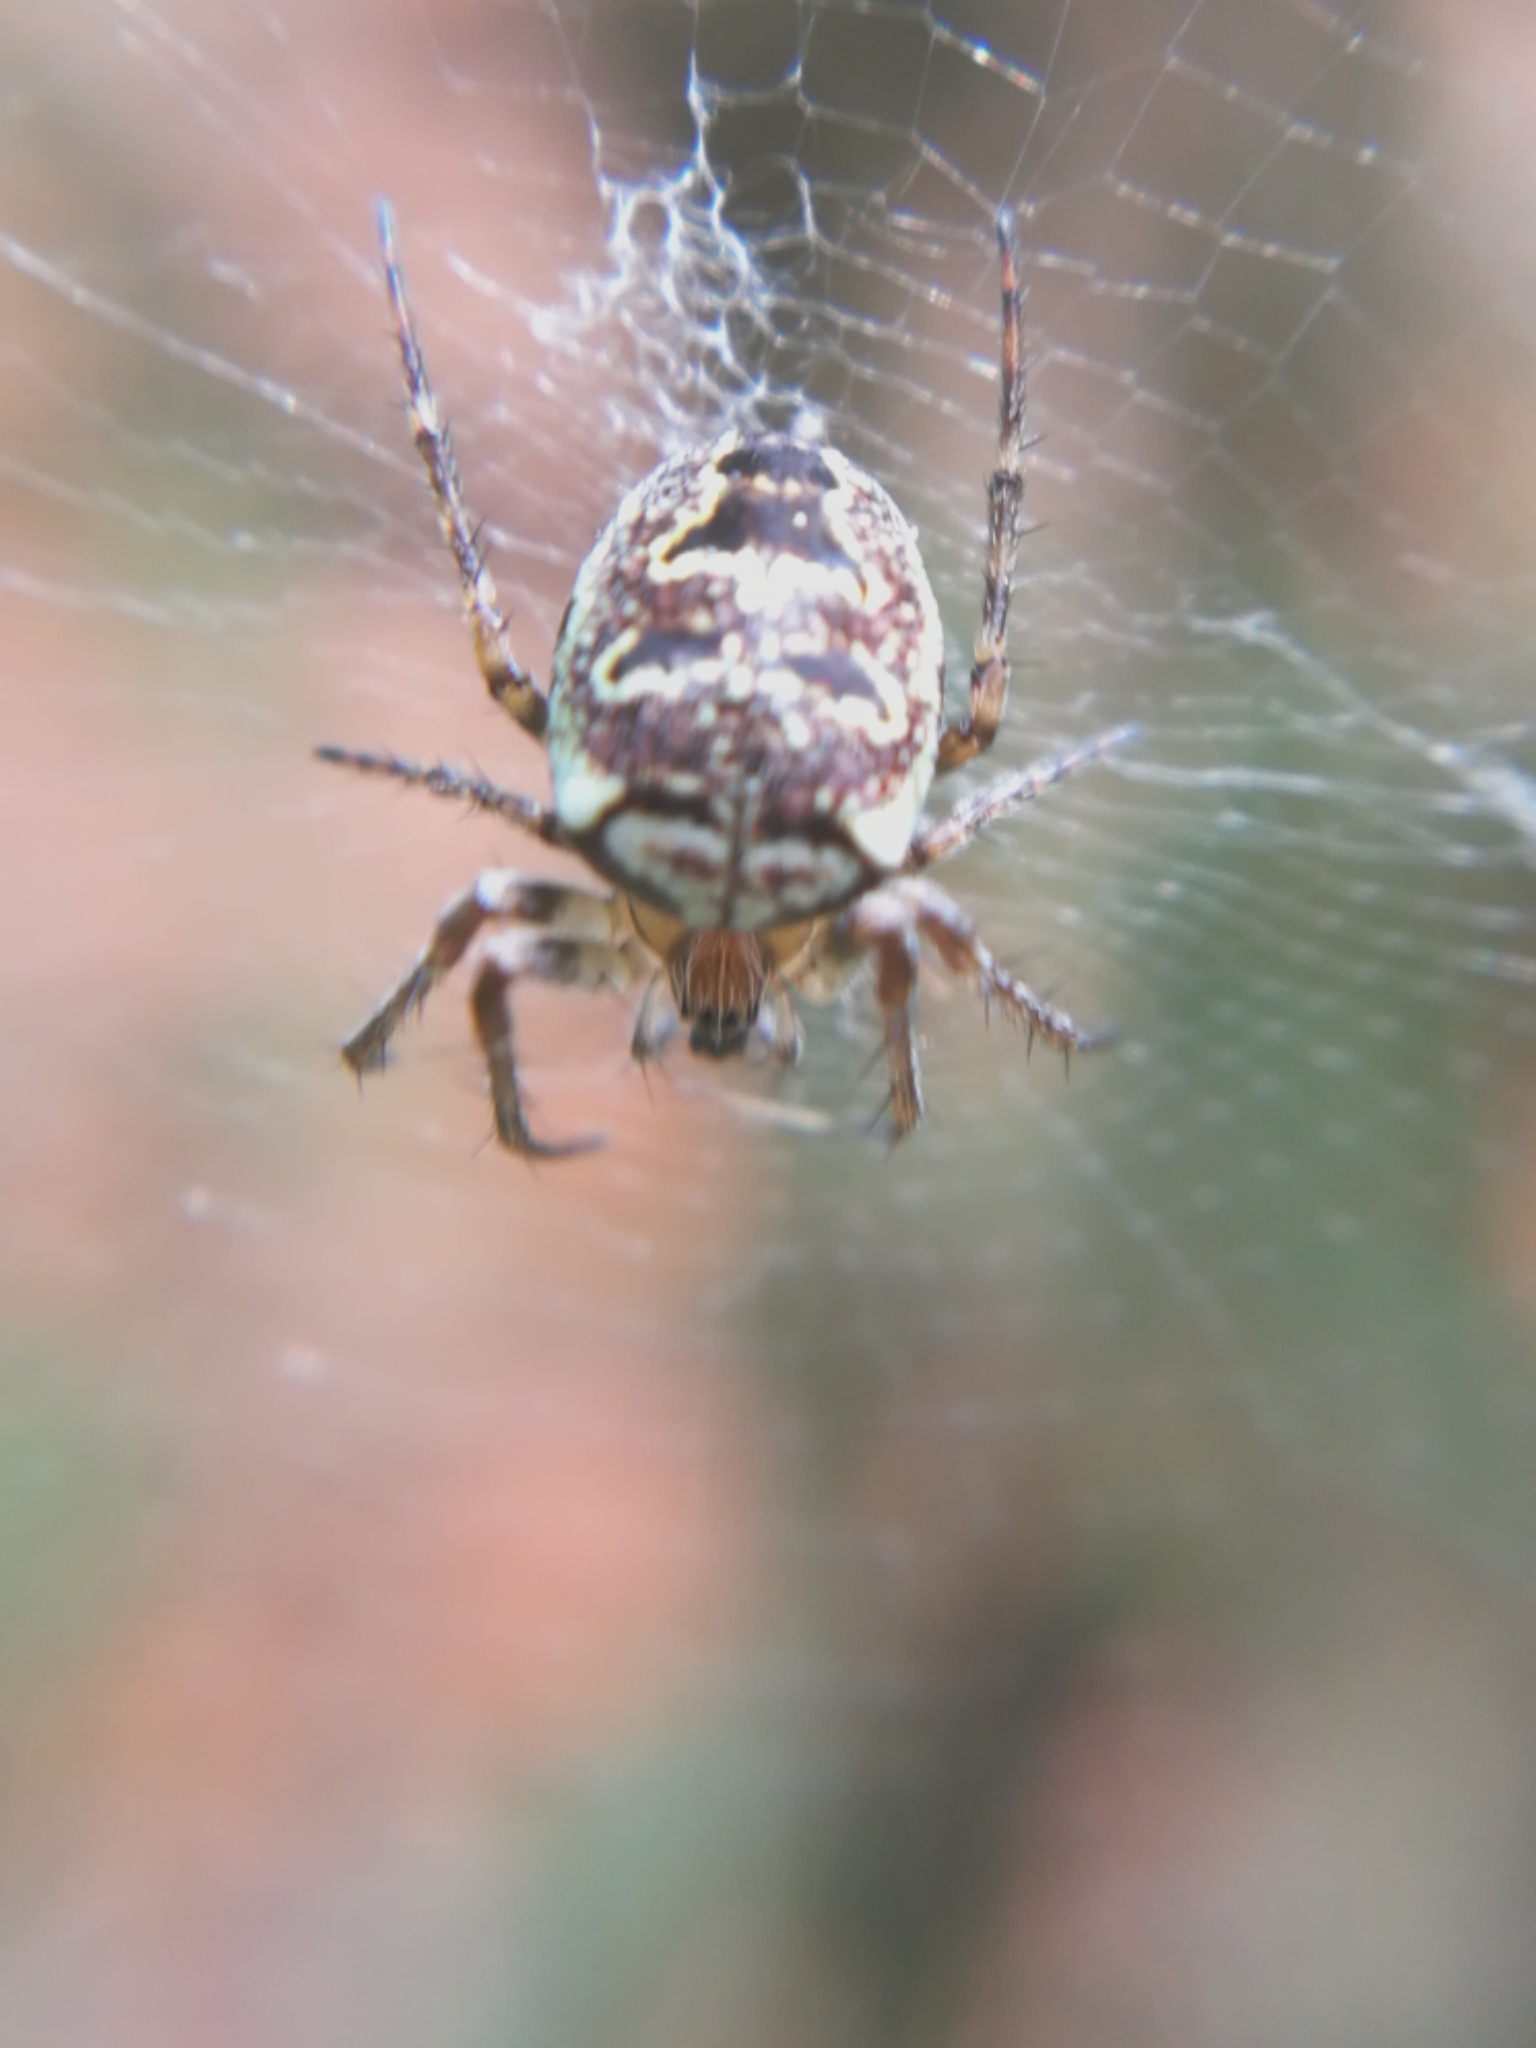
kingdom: Animalia
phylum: Arthropoda
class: Arachnida
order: Araneae
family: Araneidae
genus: Zilla
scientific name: Zilla diodia
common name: Zilla diodia
